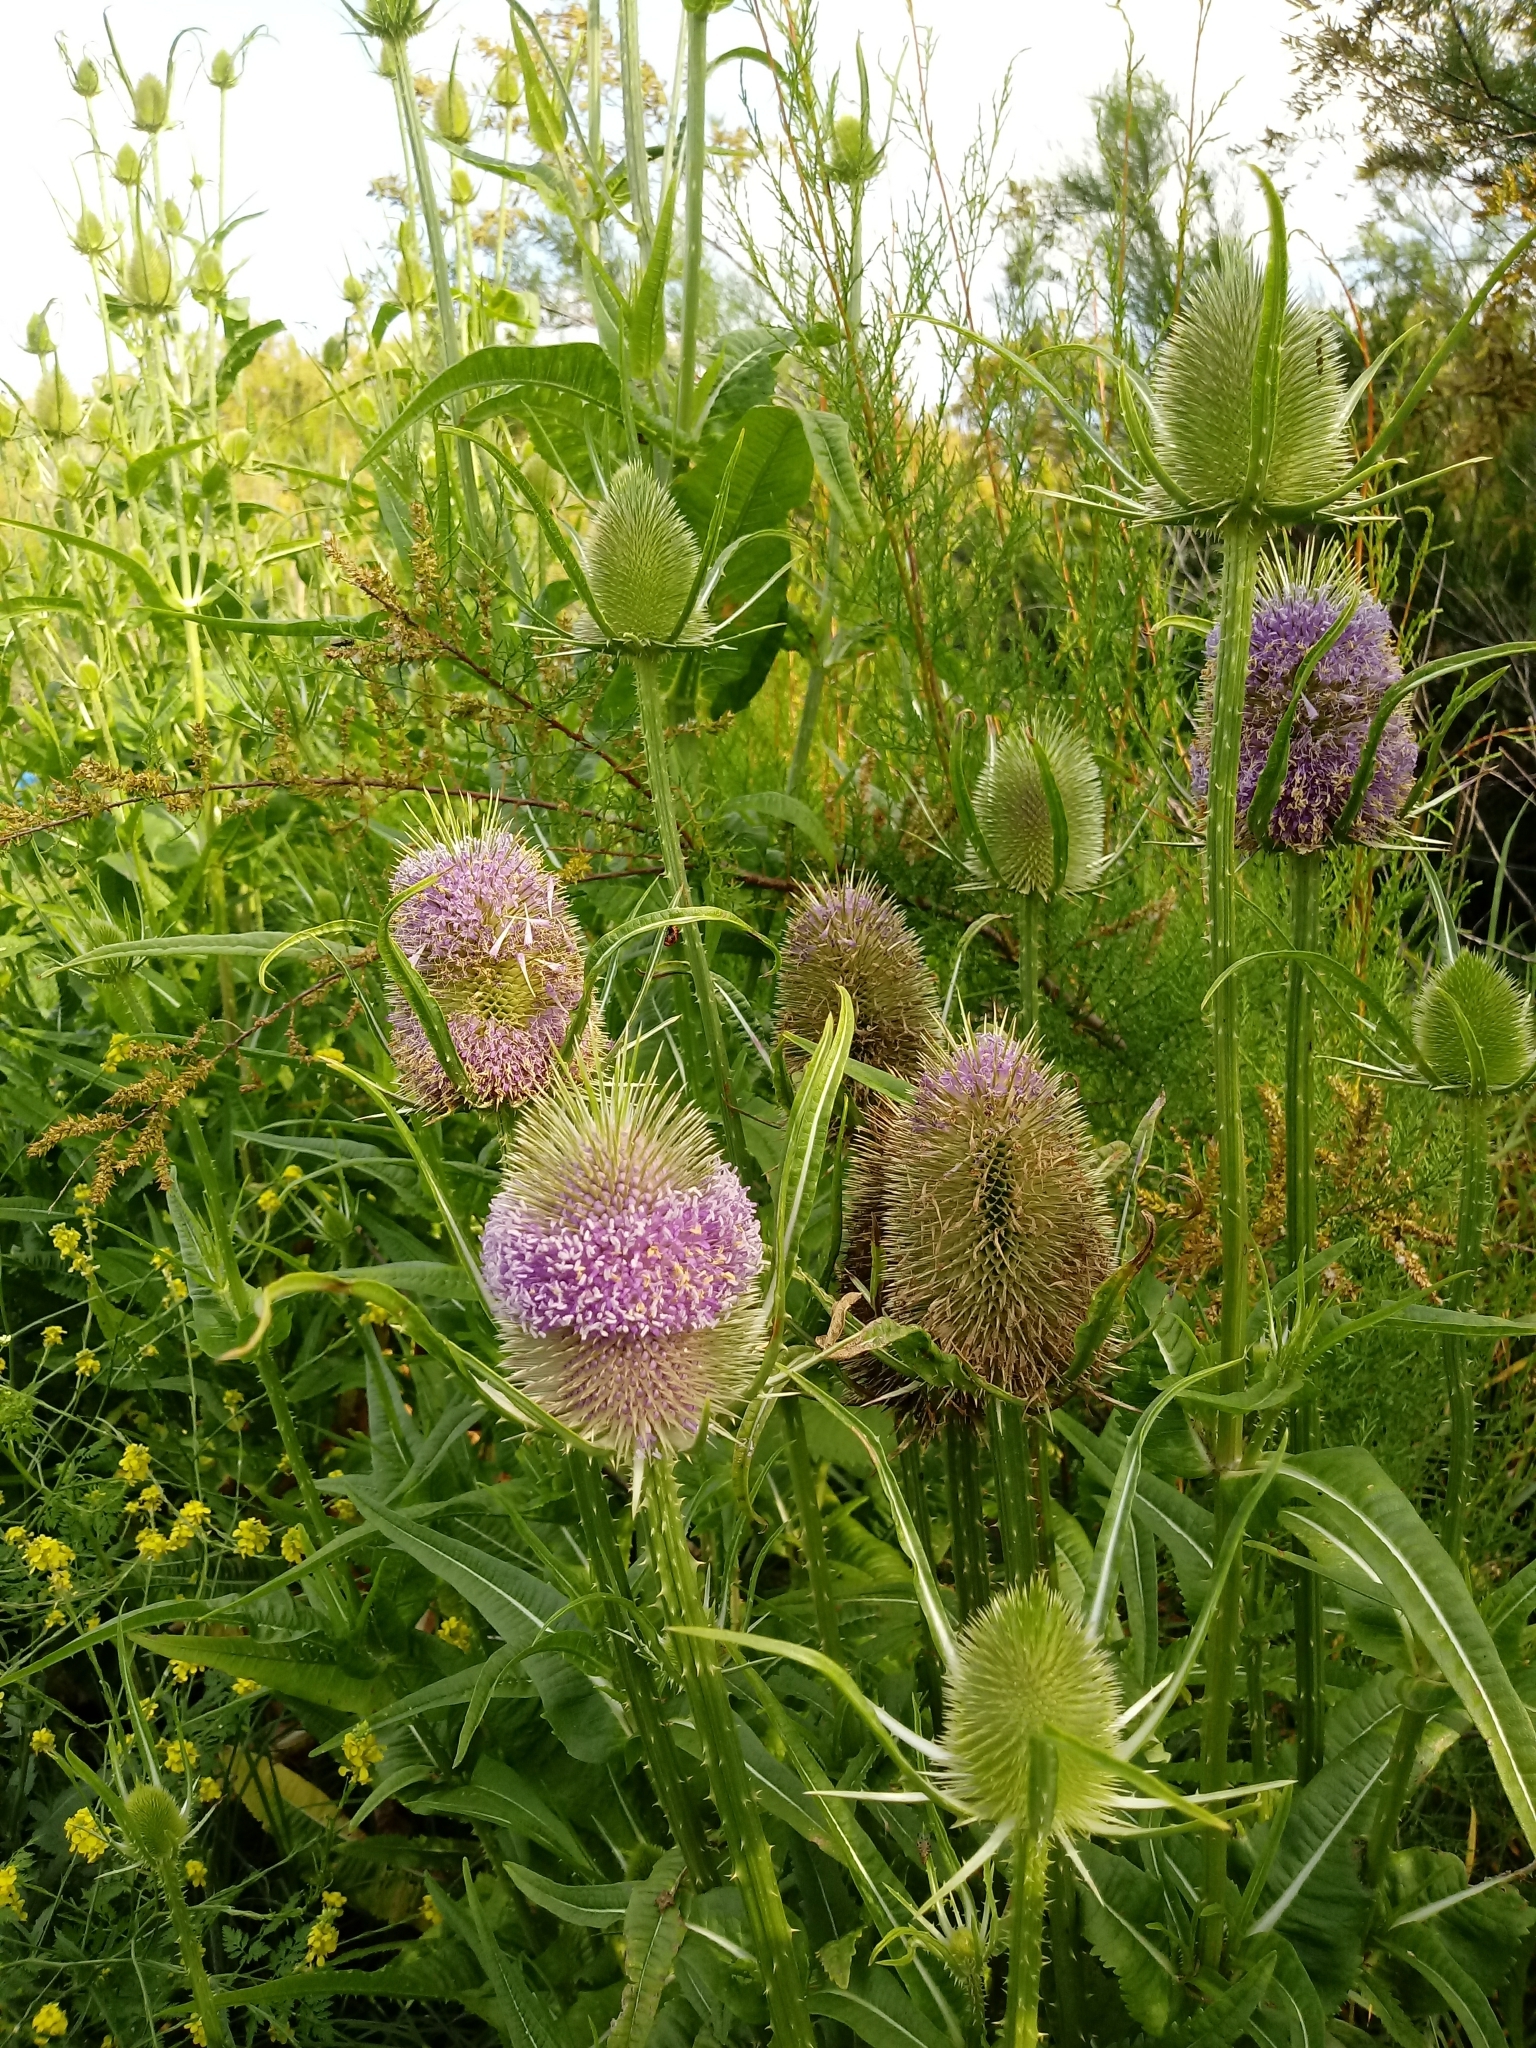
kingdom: Plantae
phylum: Tracheophyta
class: Magnoliopsida
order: Dipsacales
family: Caprifoliaceae
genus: Dipsacus
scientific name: Dipsacus fullonum
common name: Teasel
